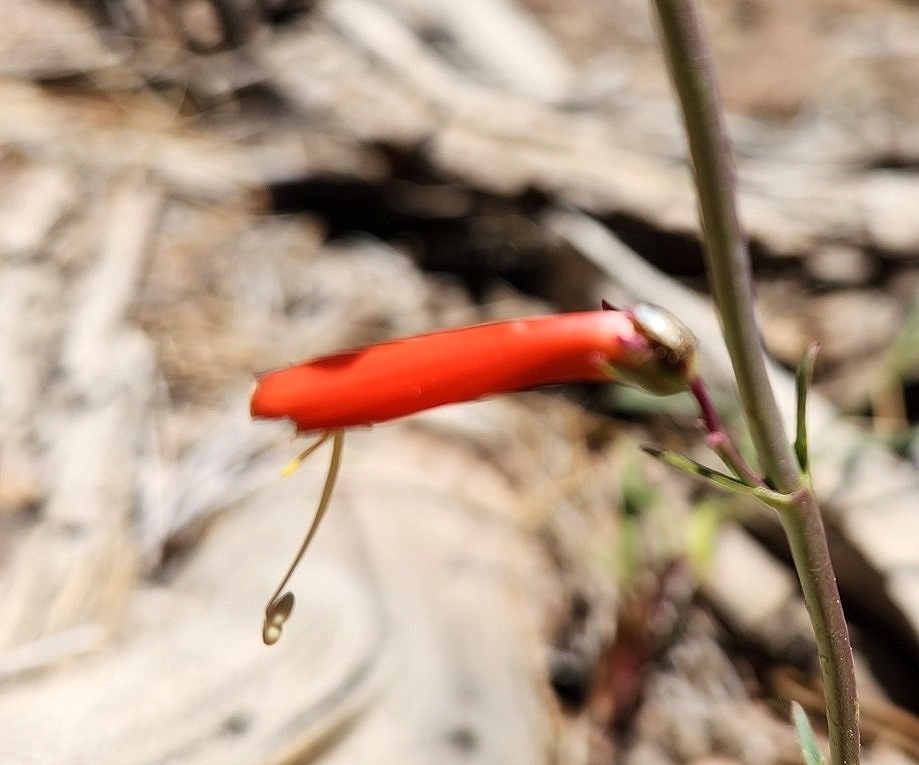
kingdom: Plantae
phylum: Tracheophyta
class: Magnoliopsida
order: Lamiales
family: Plantaginaceae
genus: Penstemon
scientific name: Penstemon labrosus
